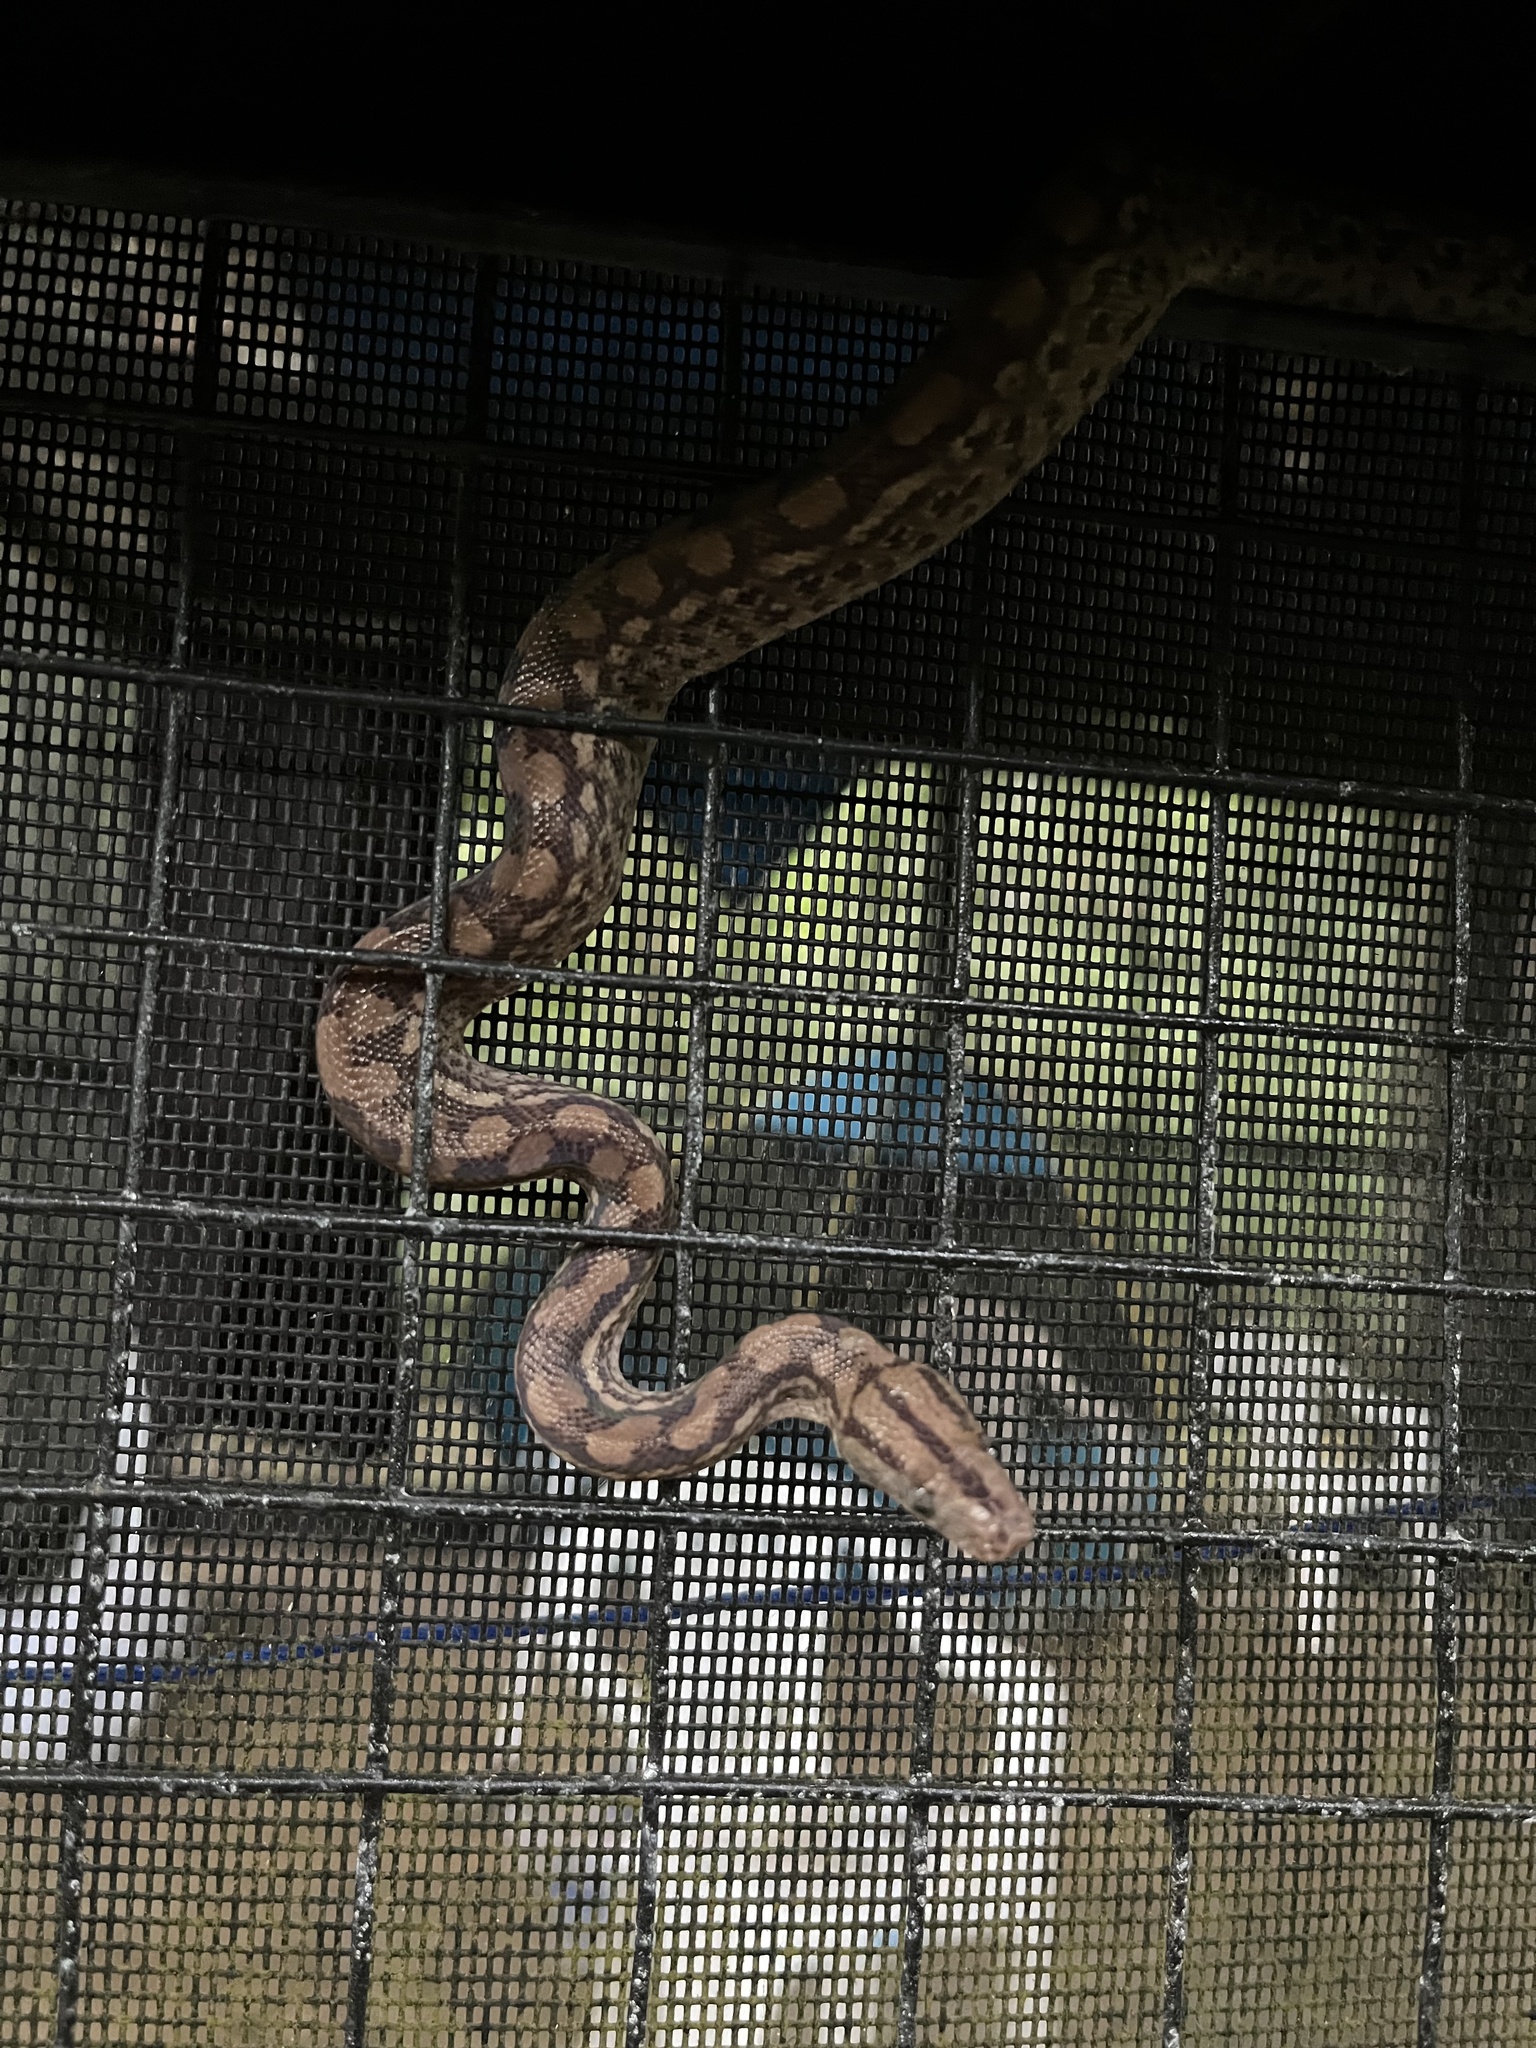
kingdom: Animalia
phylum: Chordata
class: Squamata
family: Boidae
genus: Epicrates
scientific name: Epicrates maurus
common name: Brown rainbow boa
